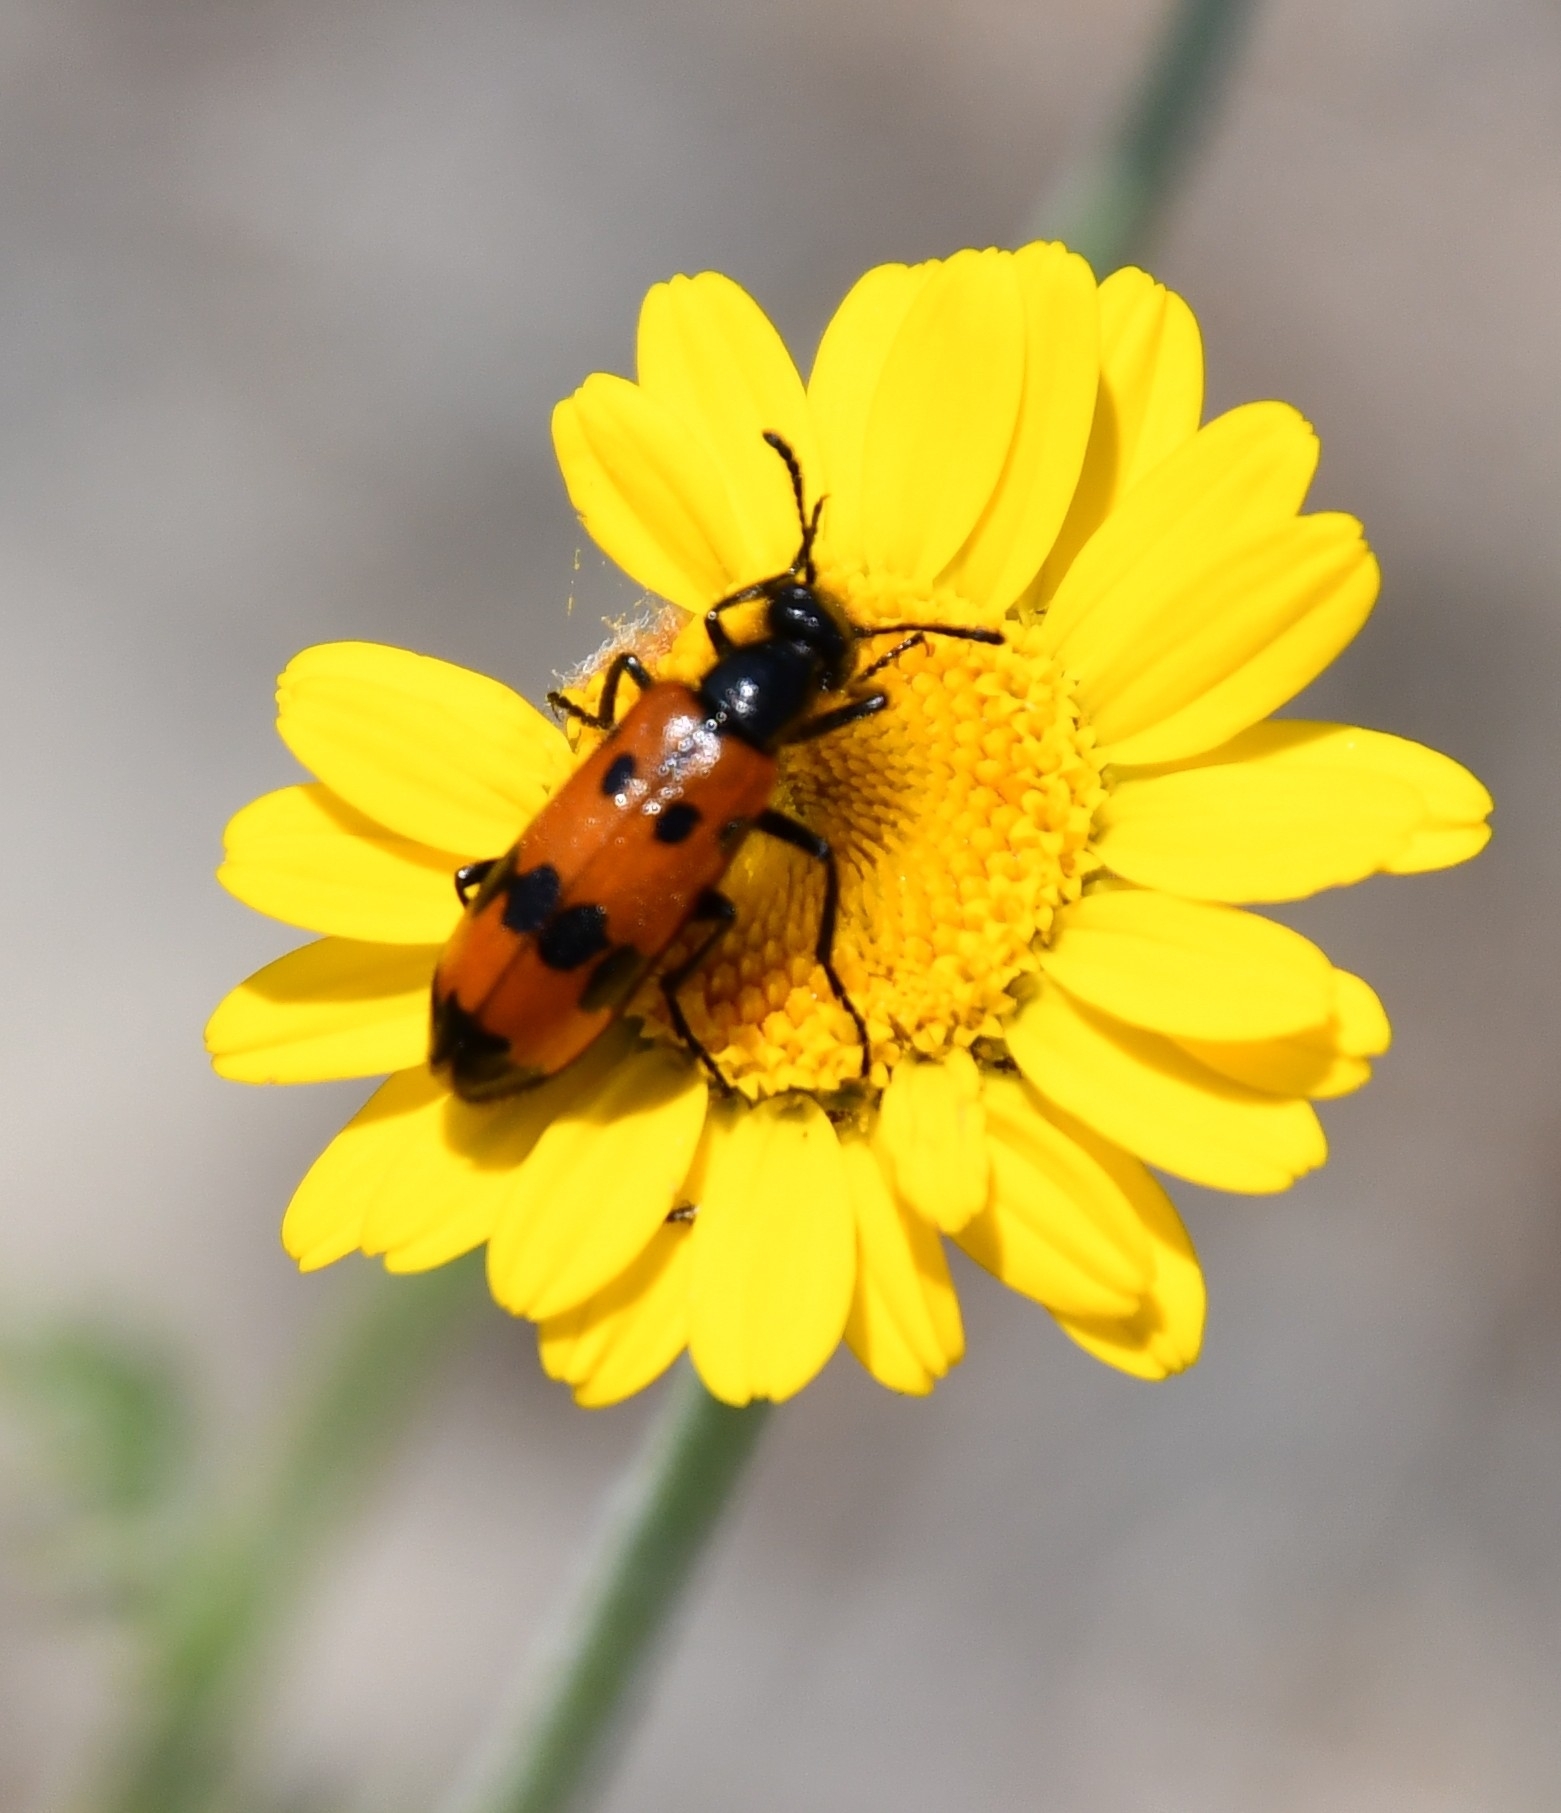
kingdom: Animalia
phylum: Arthropoda
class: Insecta
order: Coleoptera
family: Meloidae
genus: Mylabris
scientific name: Mylabris quadripunctata
